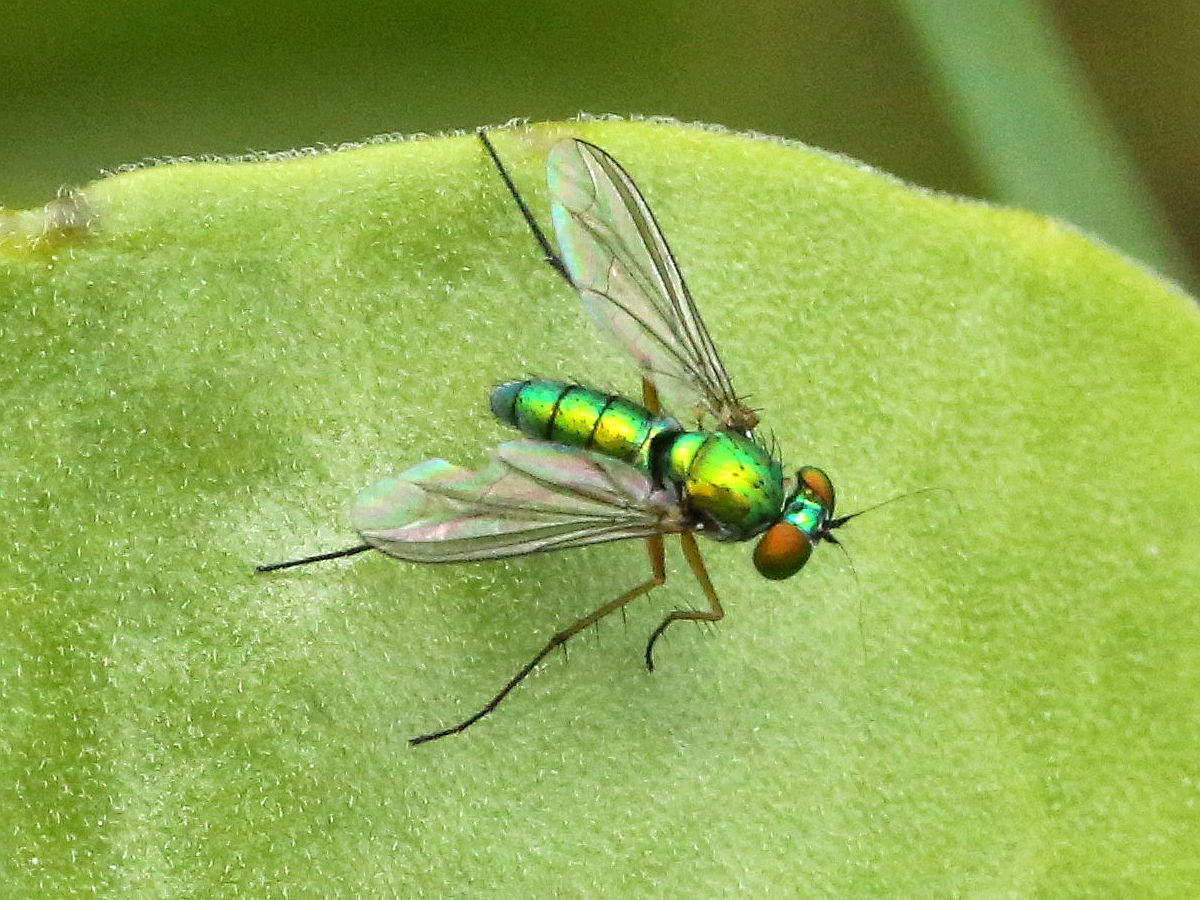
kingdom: Animalia
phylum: Arthropoda
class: Insecta
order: Diptera
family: Dolichopodidae
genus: Chrysosoma
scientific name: Chrysosoma globifer
